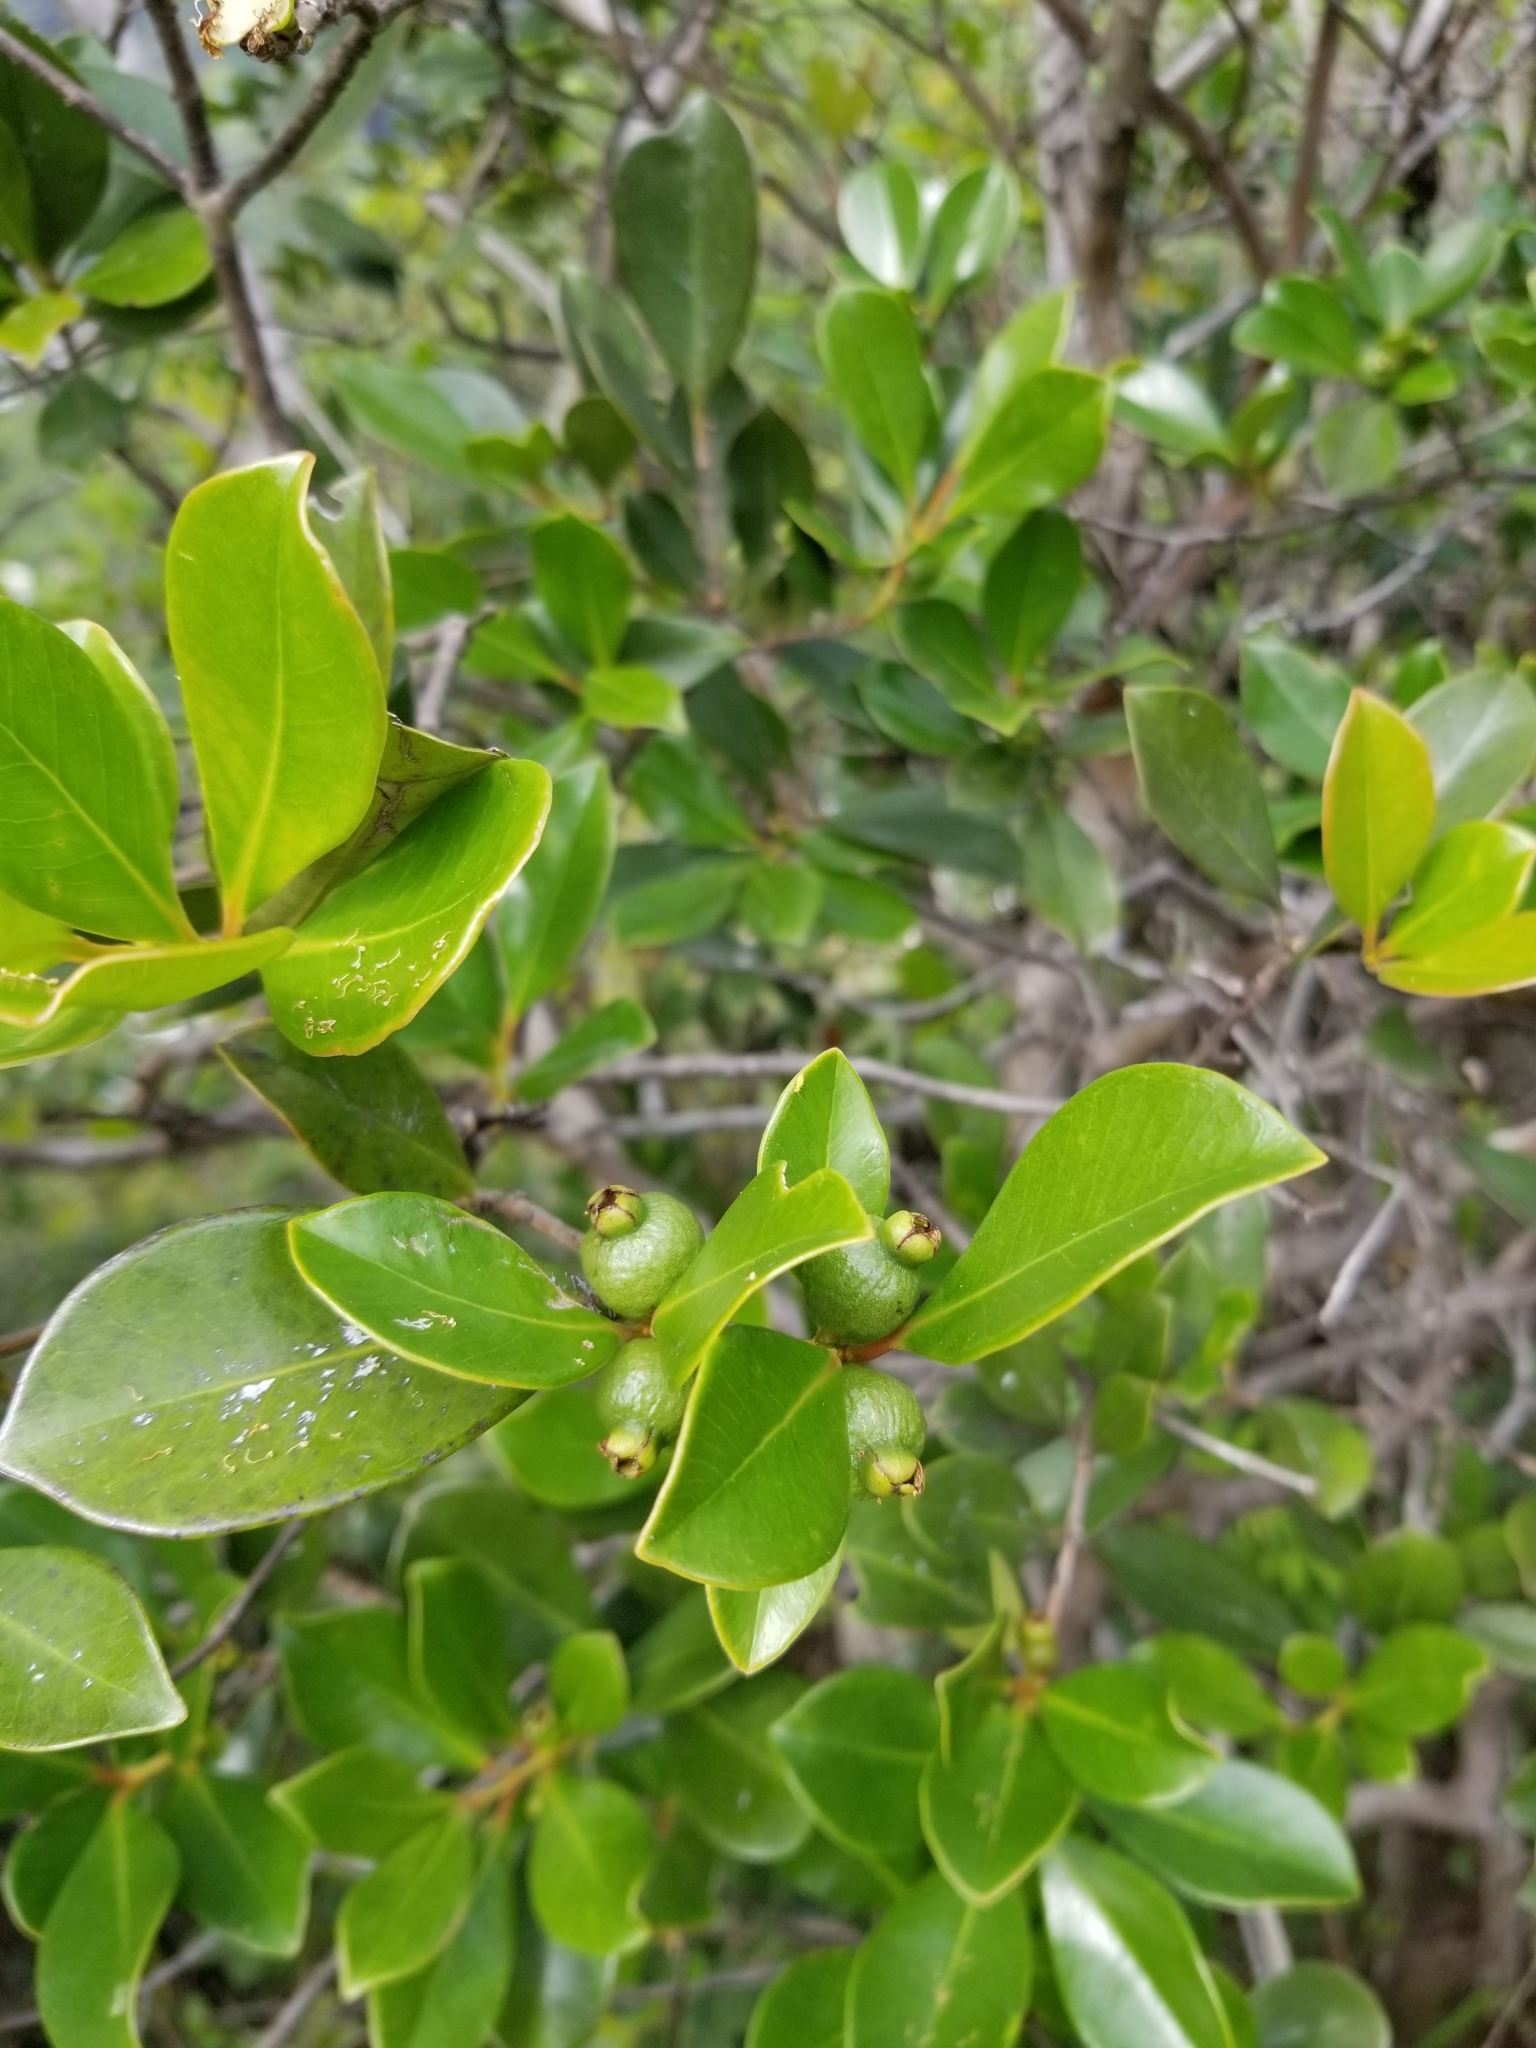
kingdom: Plantae
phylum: Tracheophyta
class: Magnoliopsida
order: Myrtales
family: Myrtaceae
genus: Psidium
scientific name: Psidium cattleianum
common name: Strawberry guava
